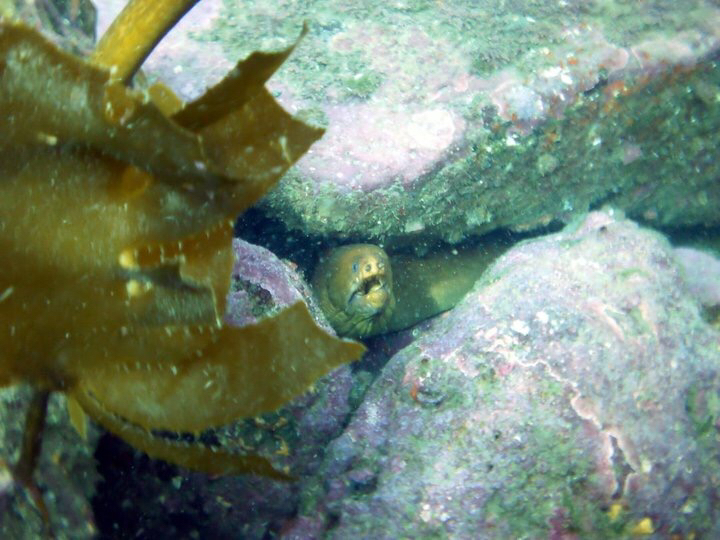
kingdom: Animalia
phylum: Chordata
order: Anguilliformes
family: Muraenidae
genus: Gymnothorax
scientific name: Gymnothorax prasinus
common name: Yellow moray
